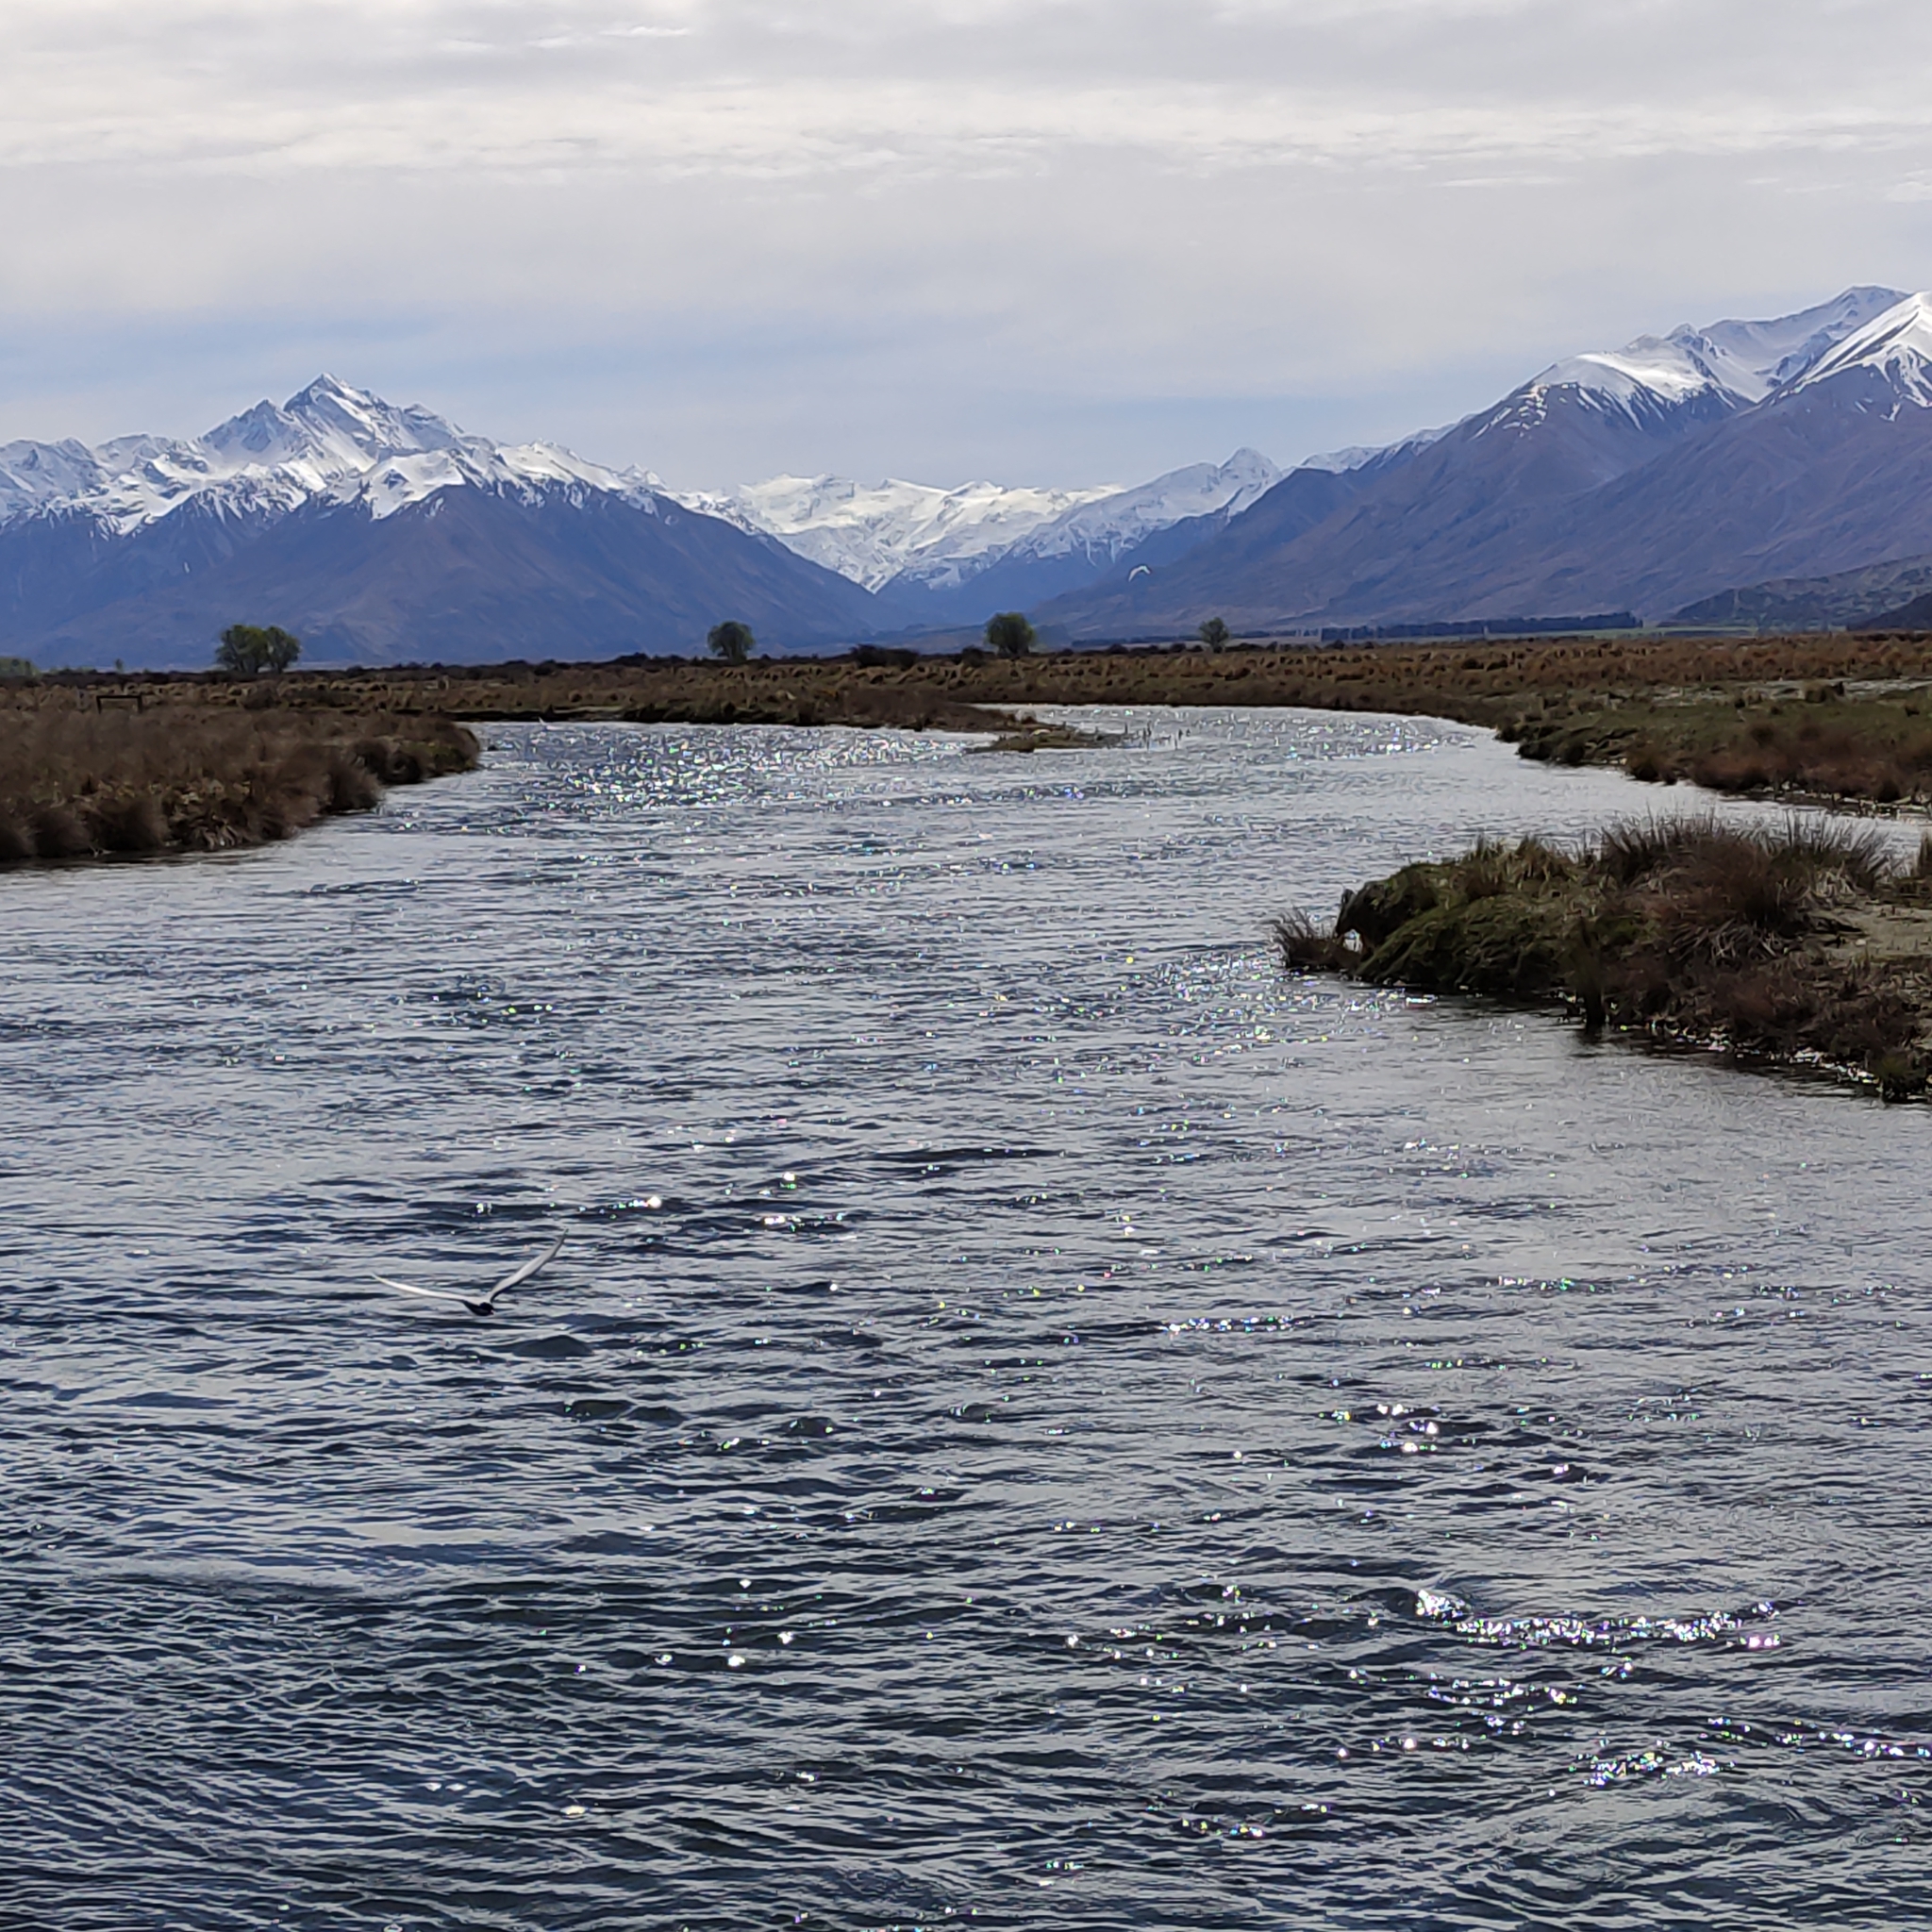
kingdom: Animalia
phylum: Chordata
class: Aves
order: Charadriiformes
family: Laridae
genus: Chlidonias
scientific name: Chlidonias albostriatus
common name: Black-fronted tern
